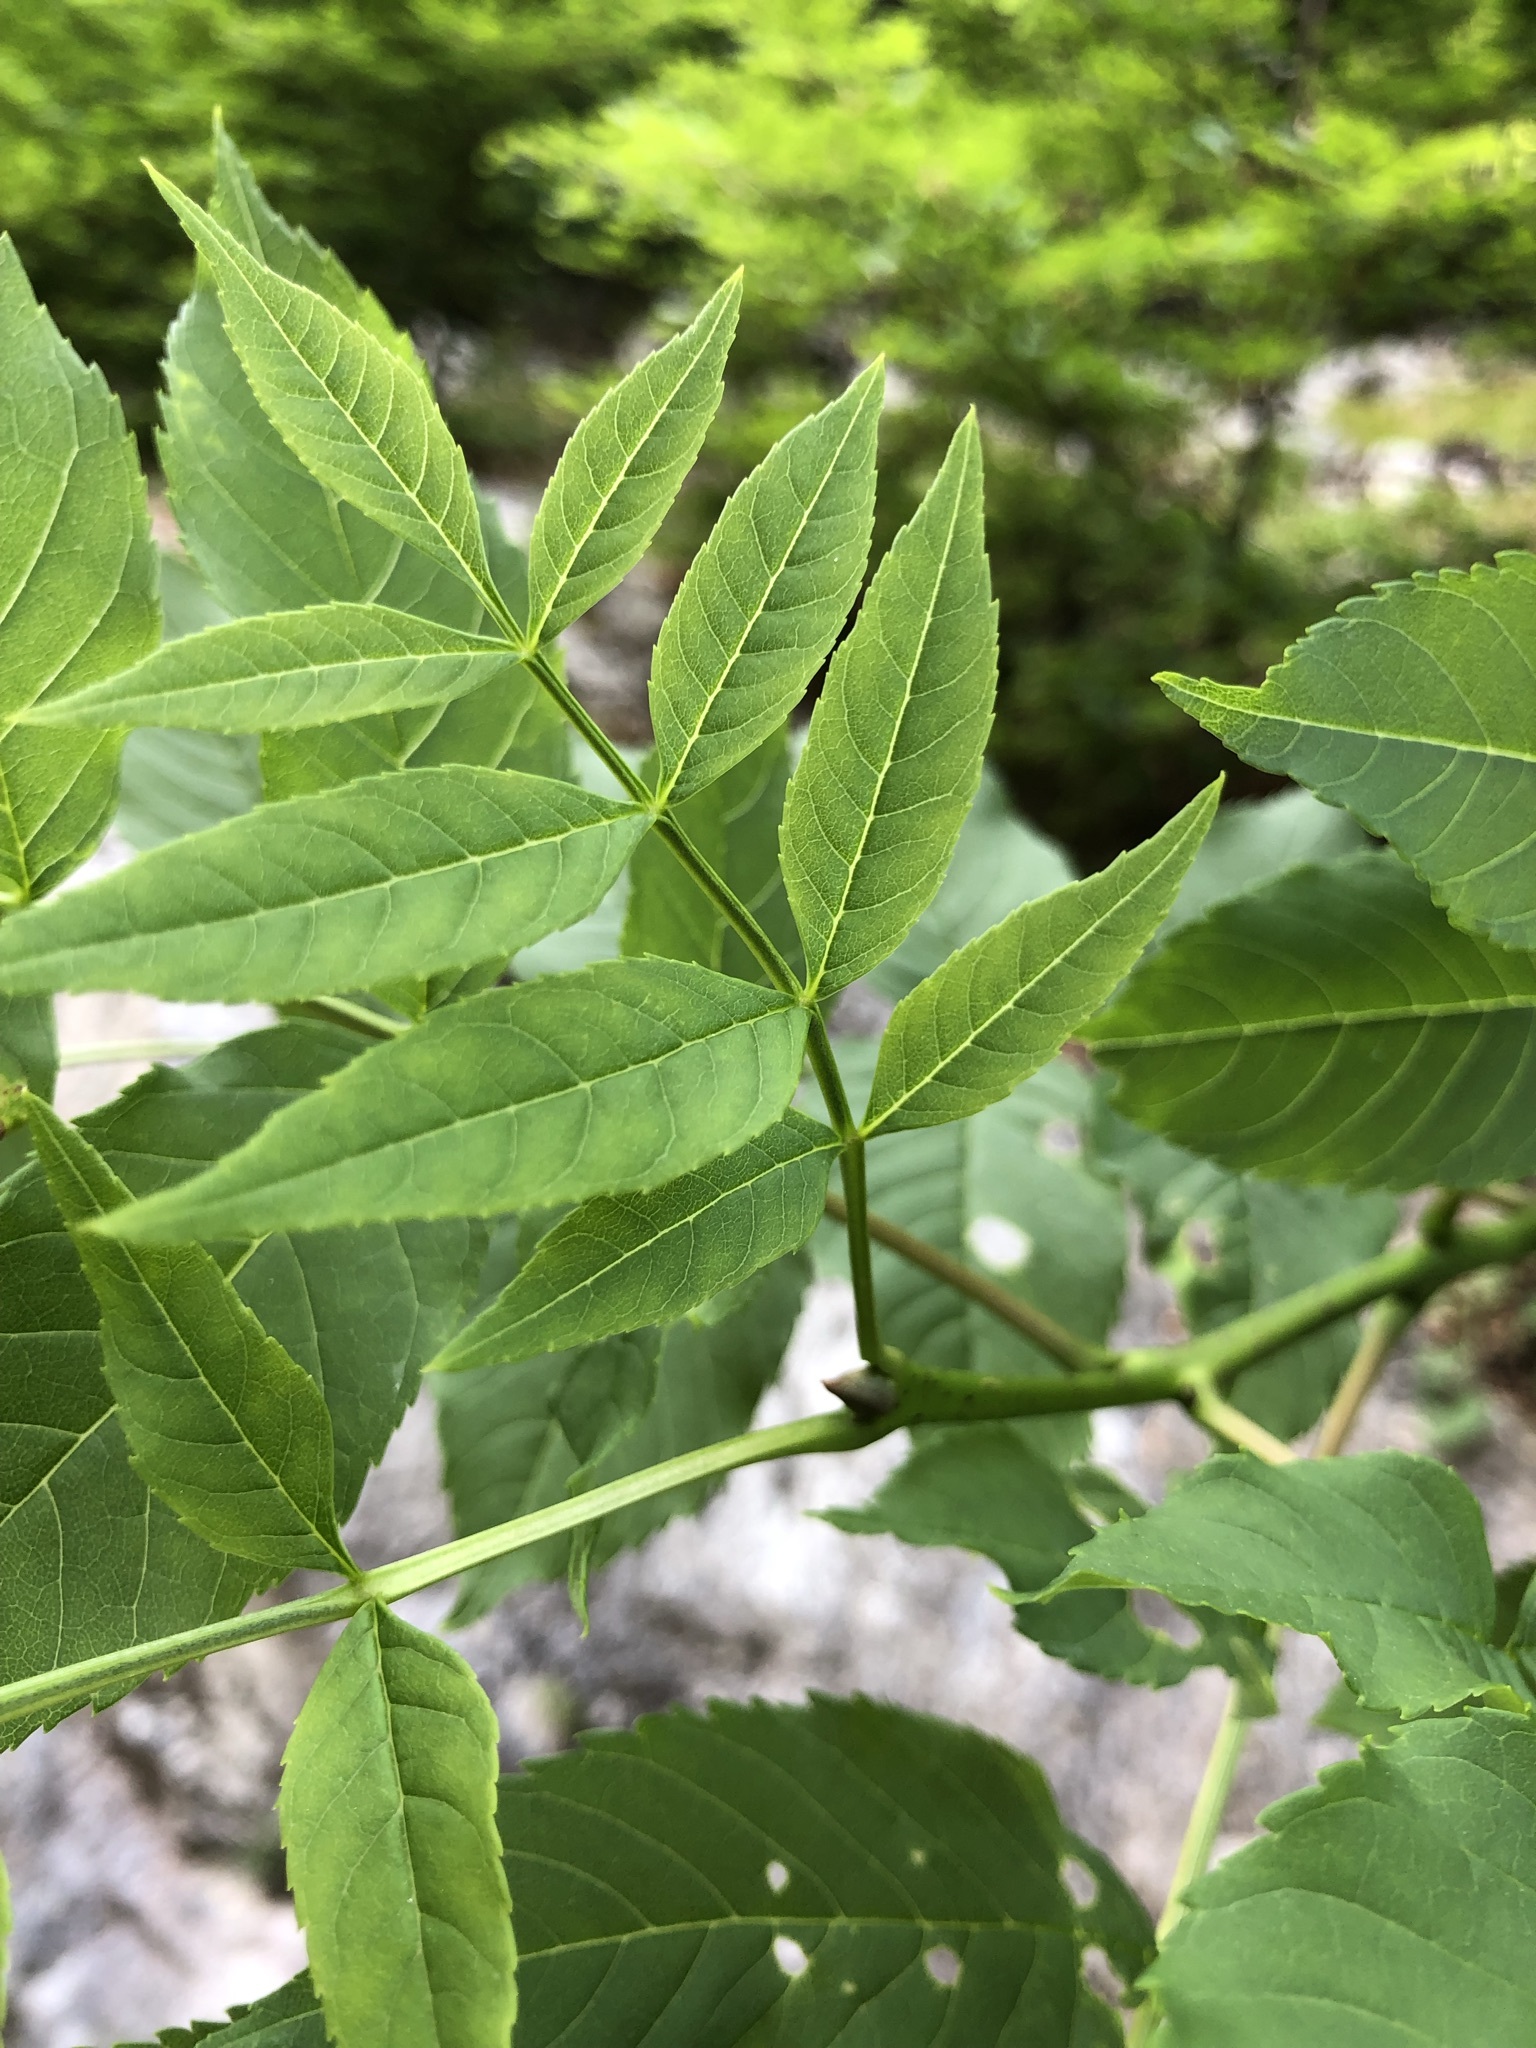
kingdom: Plantae
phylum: Tracheophyta
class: Magnoliopsida
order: Lamiales
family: Oleaceae
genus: Fraxinus
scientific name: Fraxinus excelsior
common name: European ash
